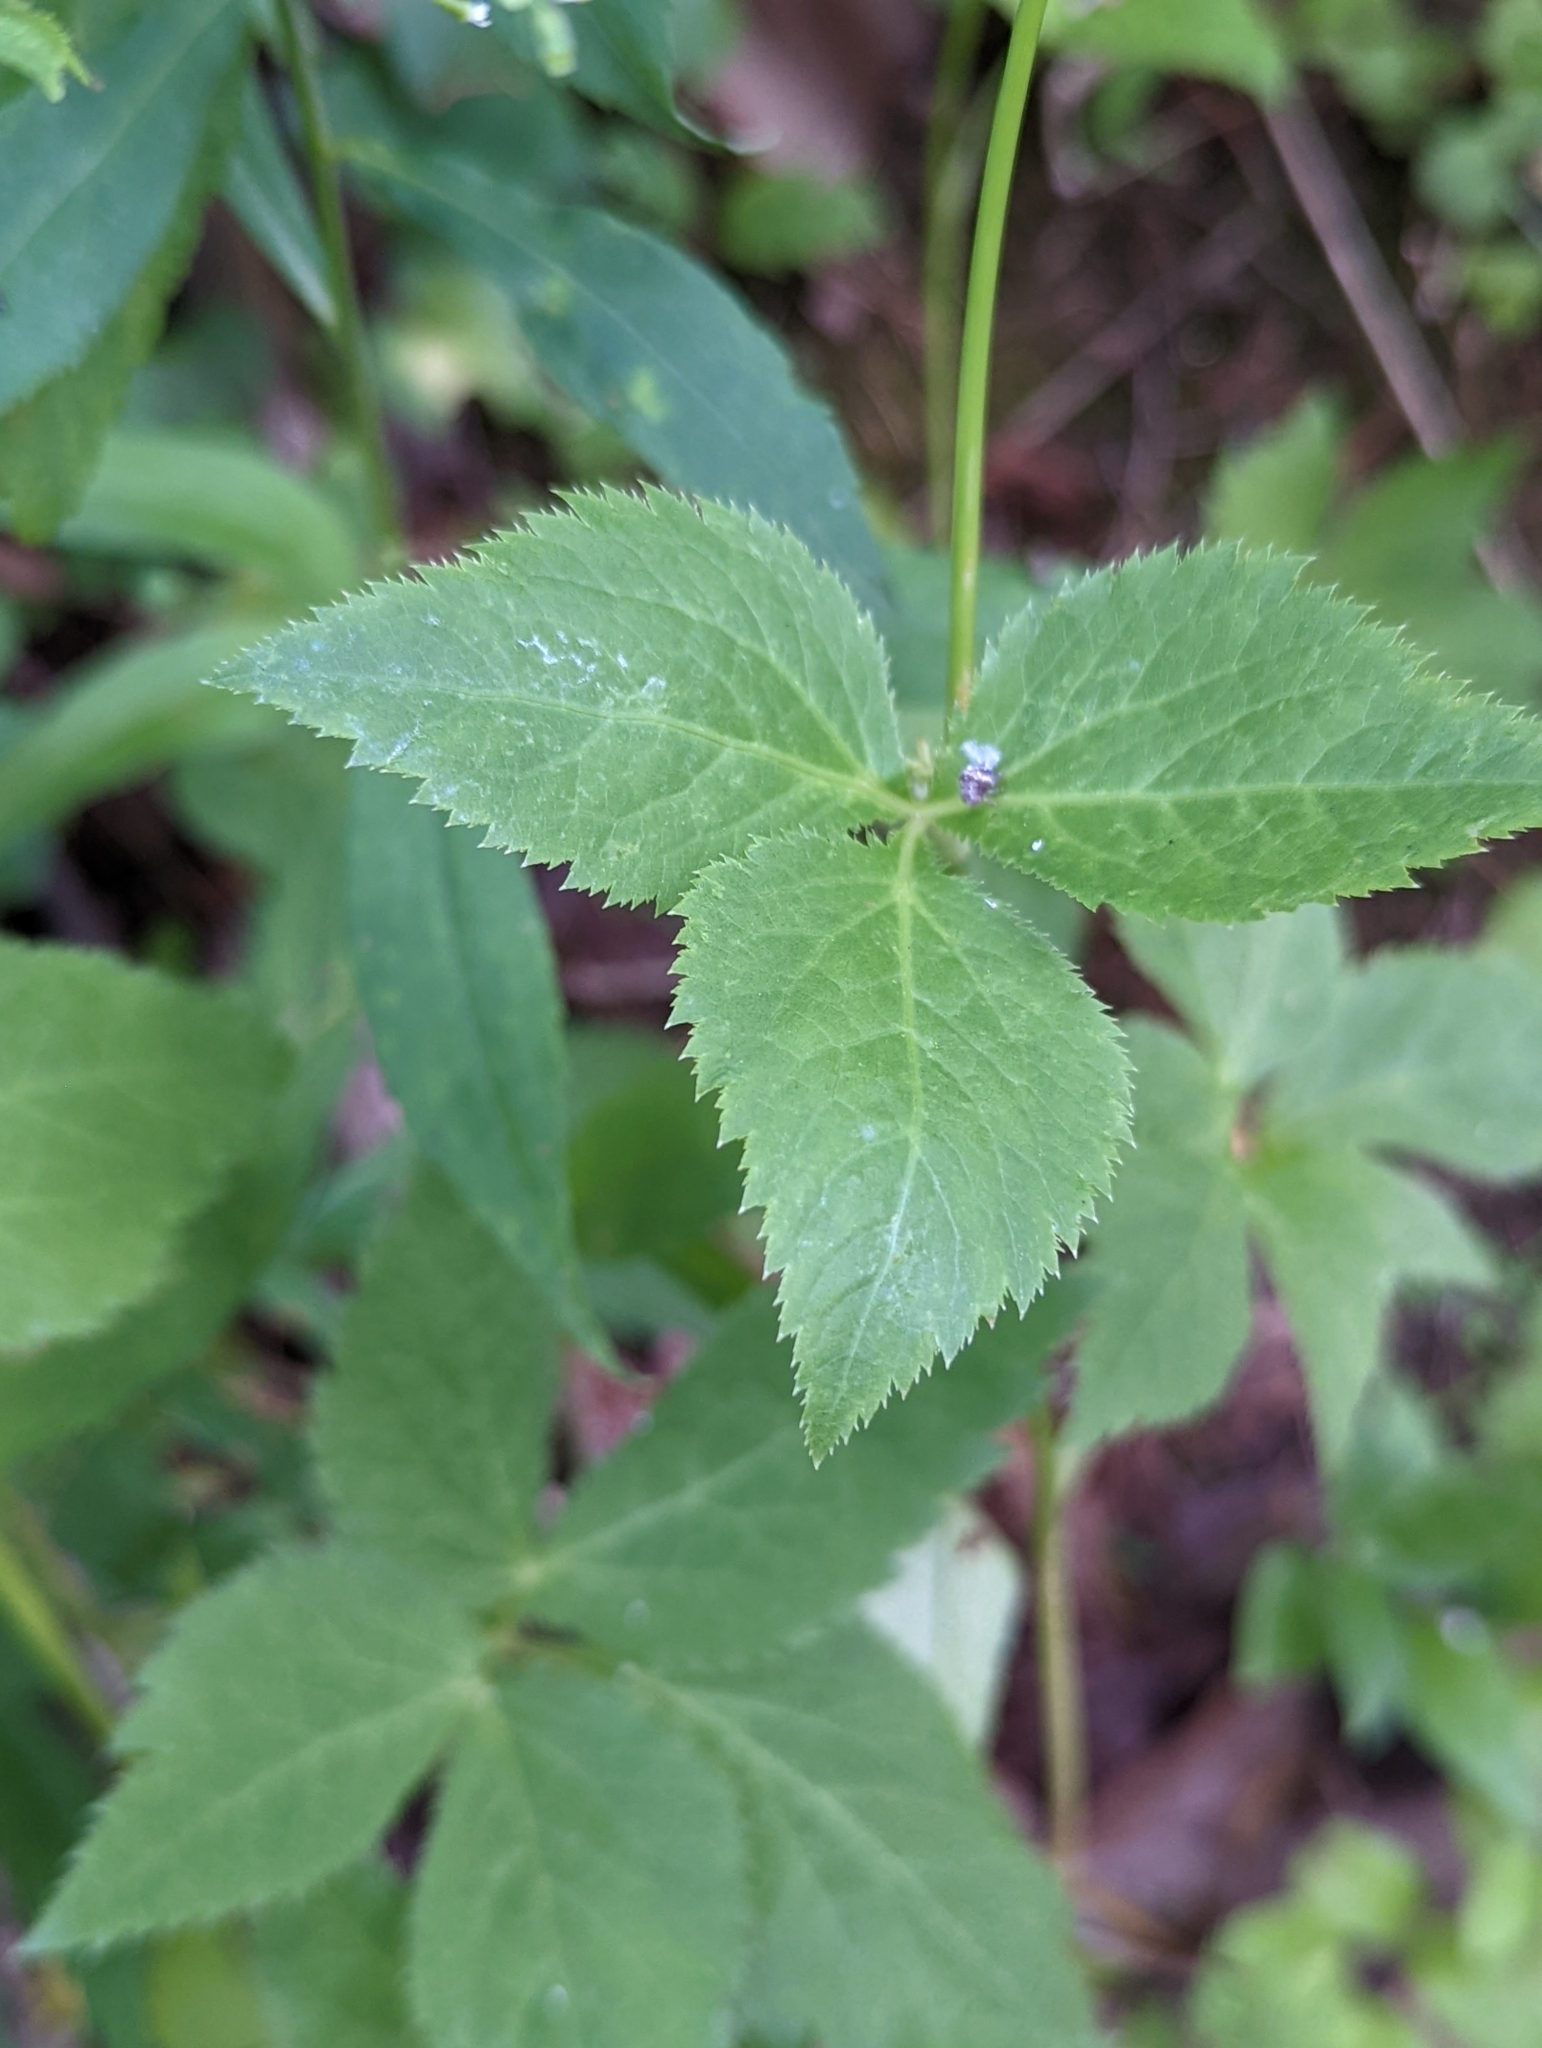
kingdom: Plantae
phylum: Tracheophyta
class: Magnoliopsida
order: Apiales
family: Apiaceae
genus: Cryptotaenia
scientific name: Cryptotaenia canadensis
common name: Honewort
